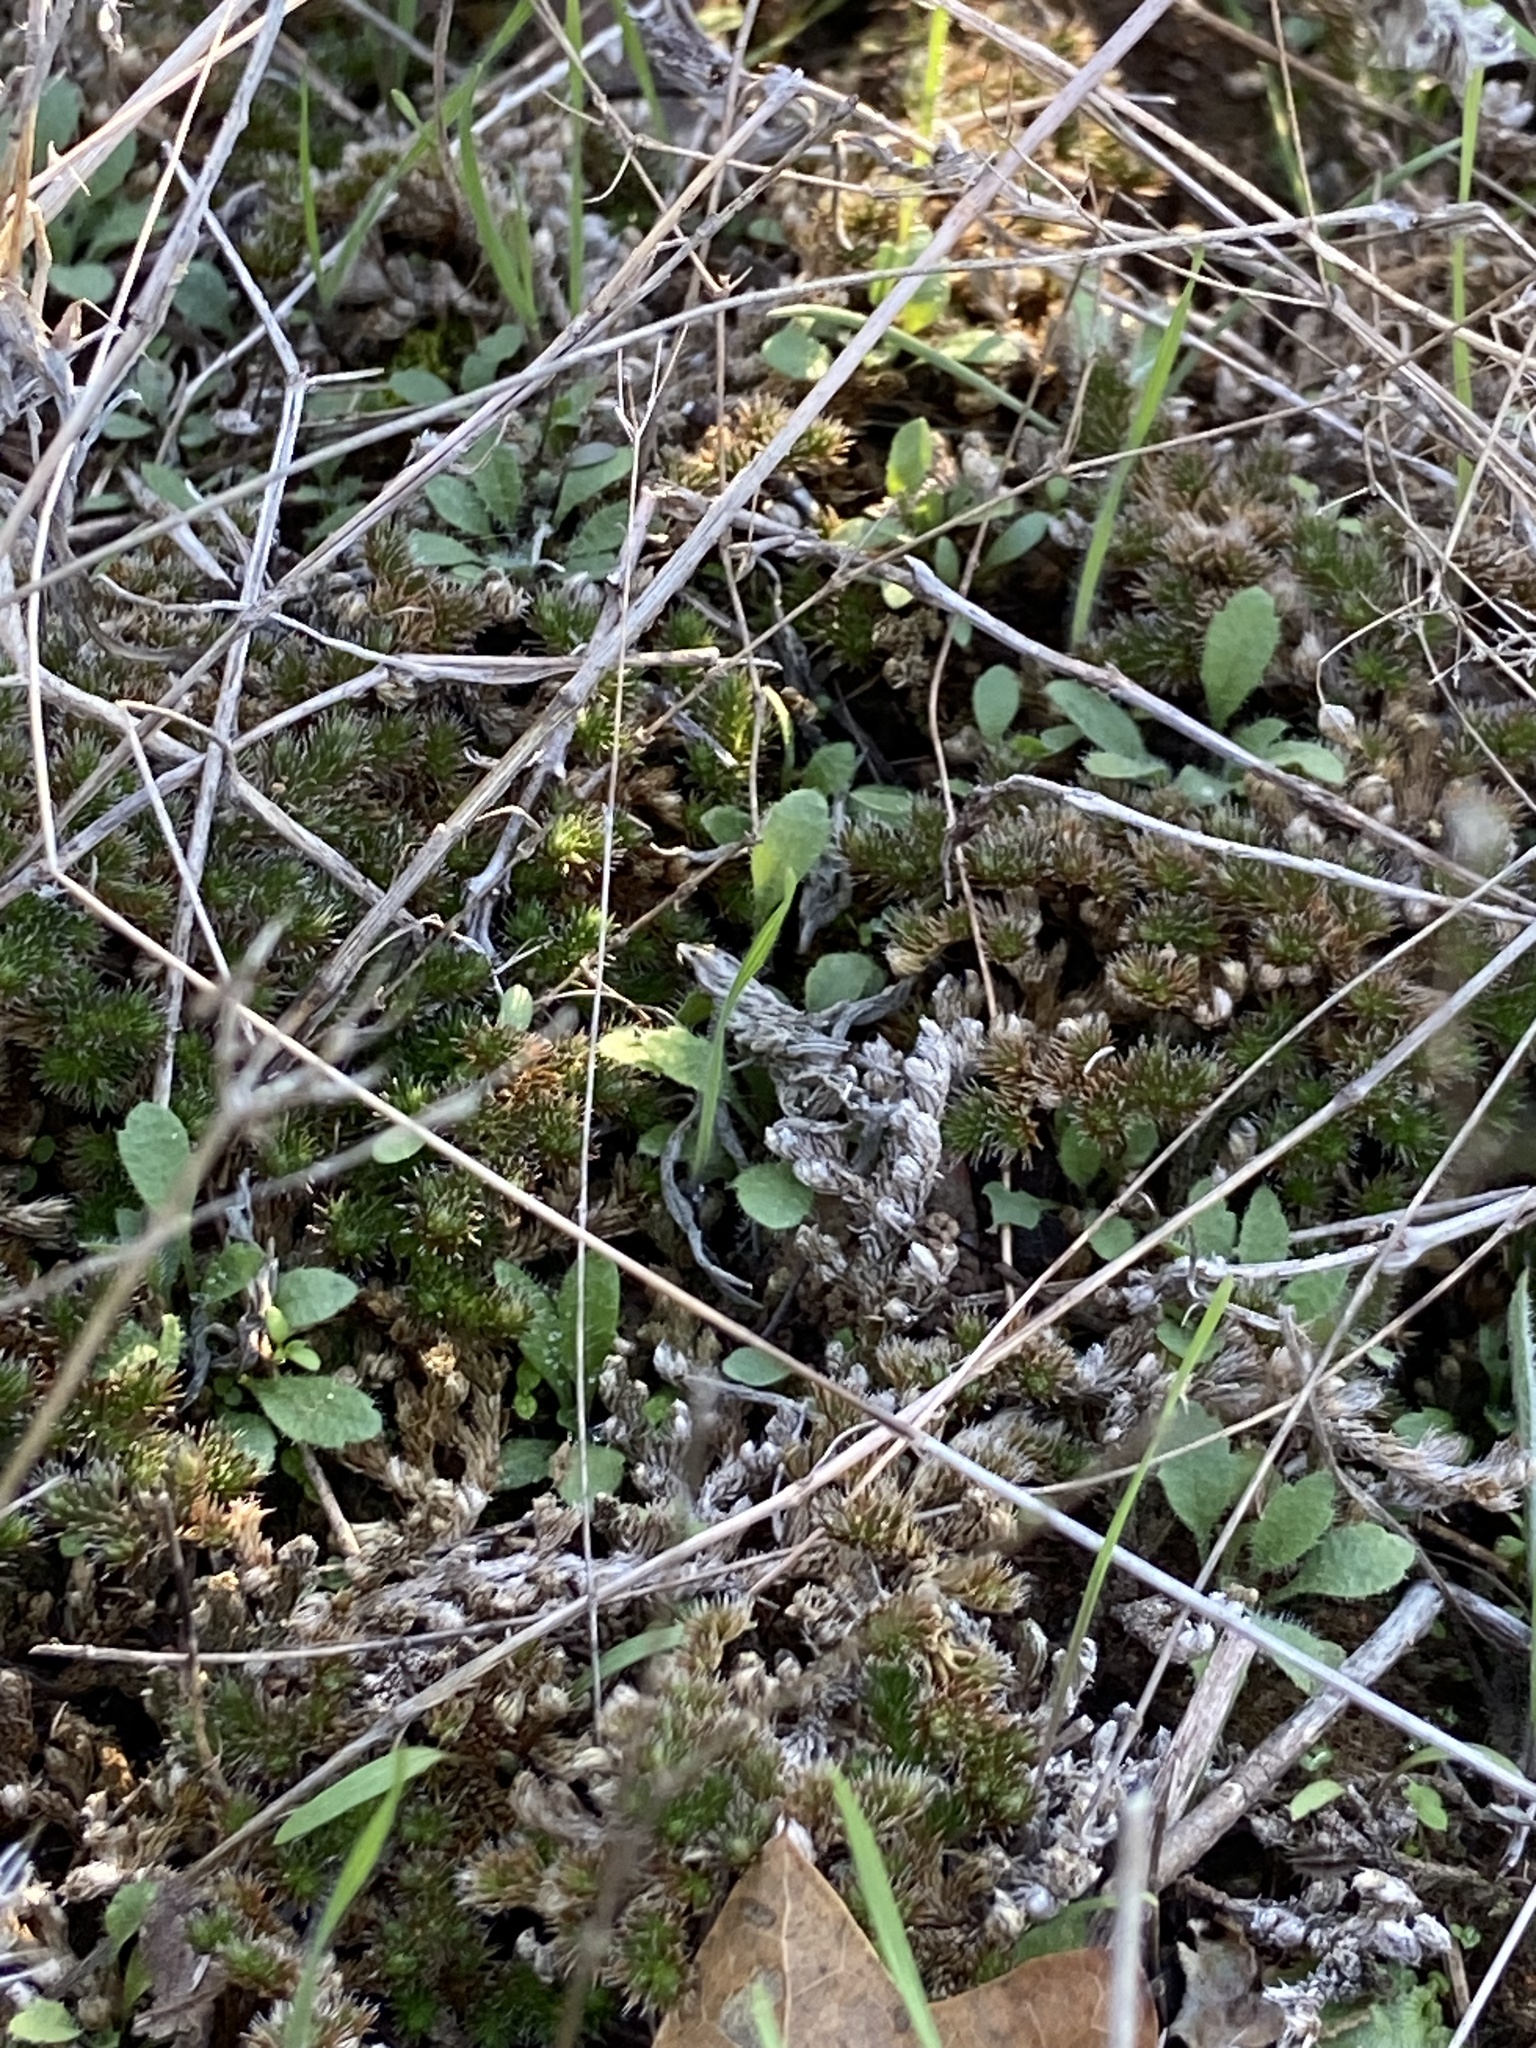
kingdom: Plantae
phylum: Tracheophyta
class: Lycopodiopsida
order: Selaginellales
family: Selaginellaceae
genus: Selaginella
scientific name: Selaginella peruviana
